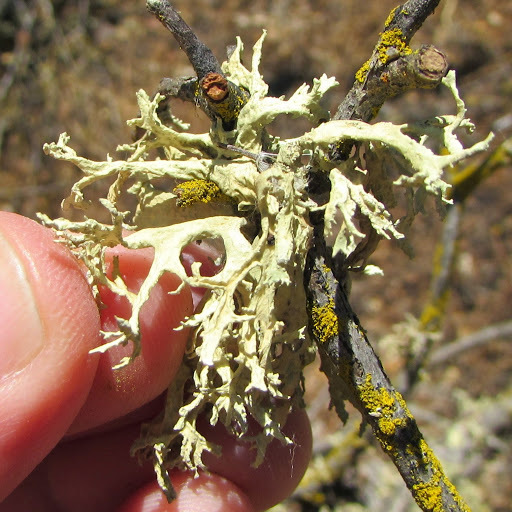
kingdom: Fungi
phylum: Ascomycota
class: Lecanoromycetes
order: Lecanorales
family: Parmeliaceae
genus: Evernia
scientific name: Evernia prunastri
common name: Oak moss
